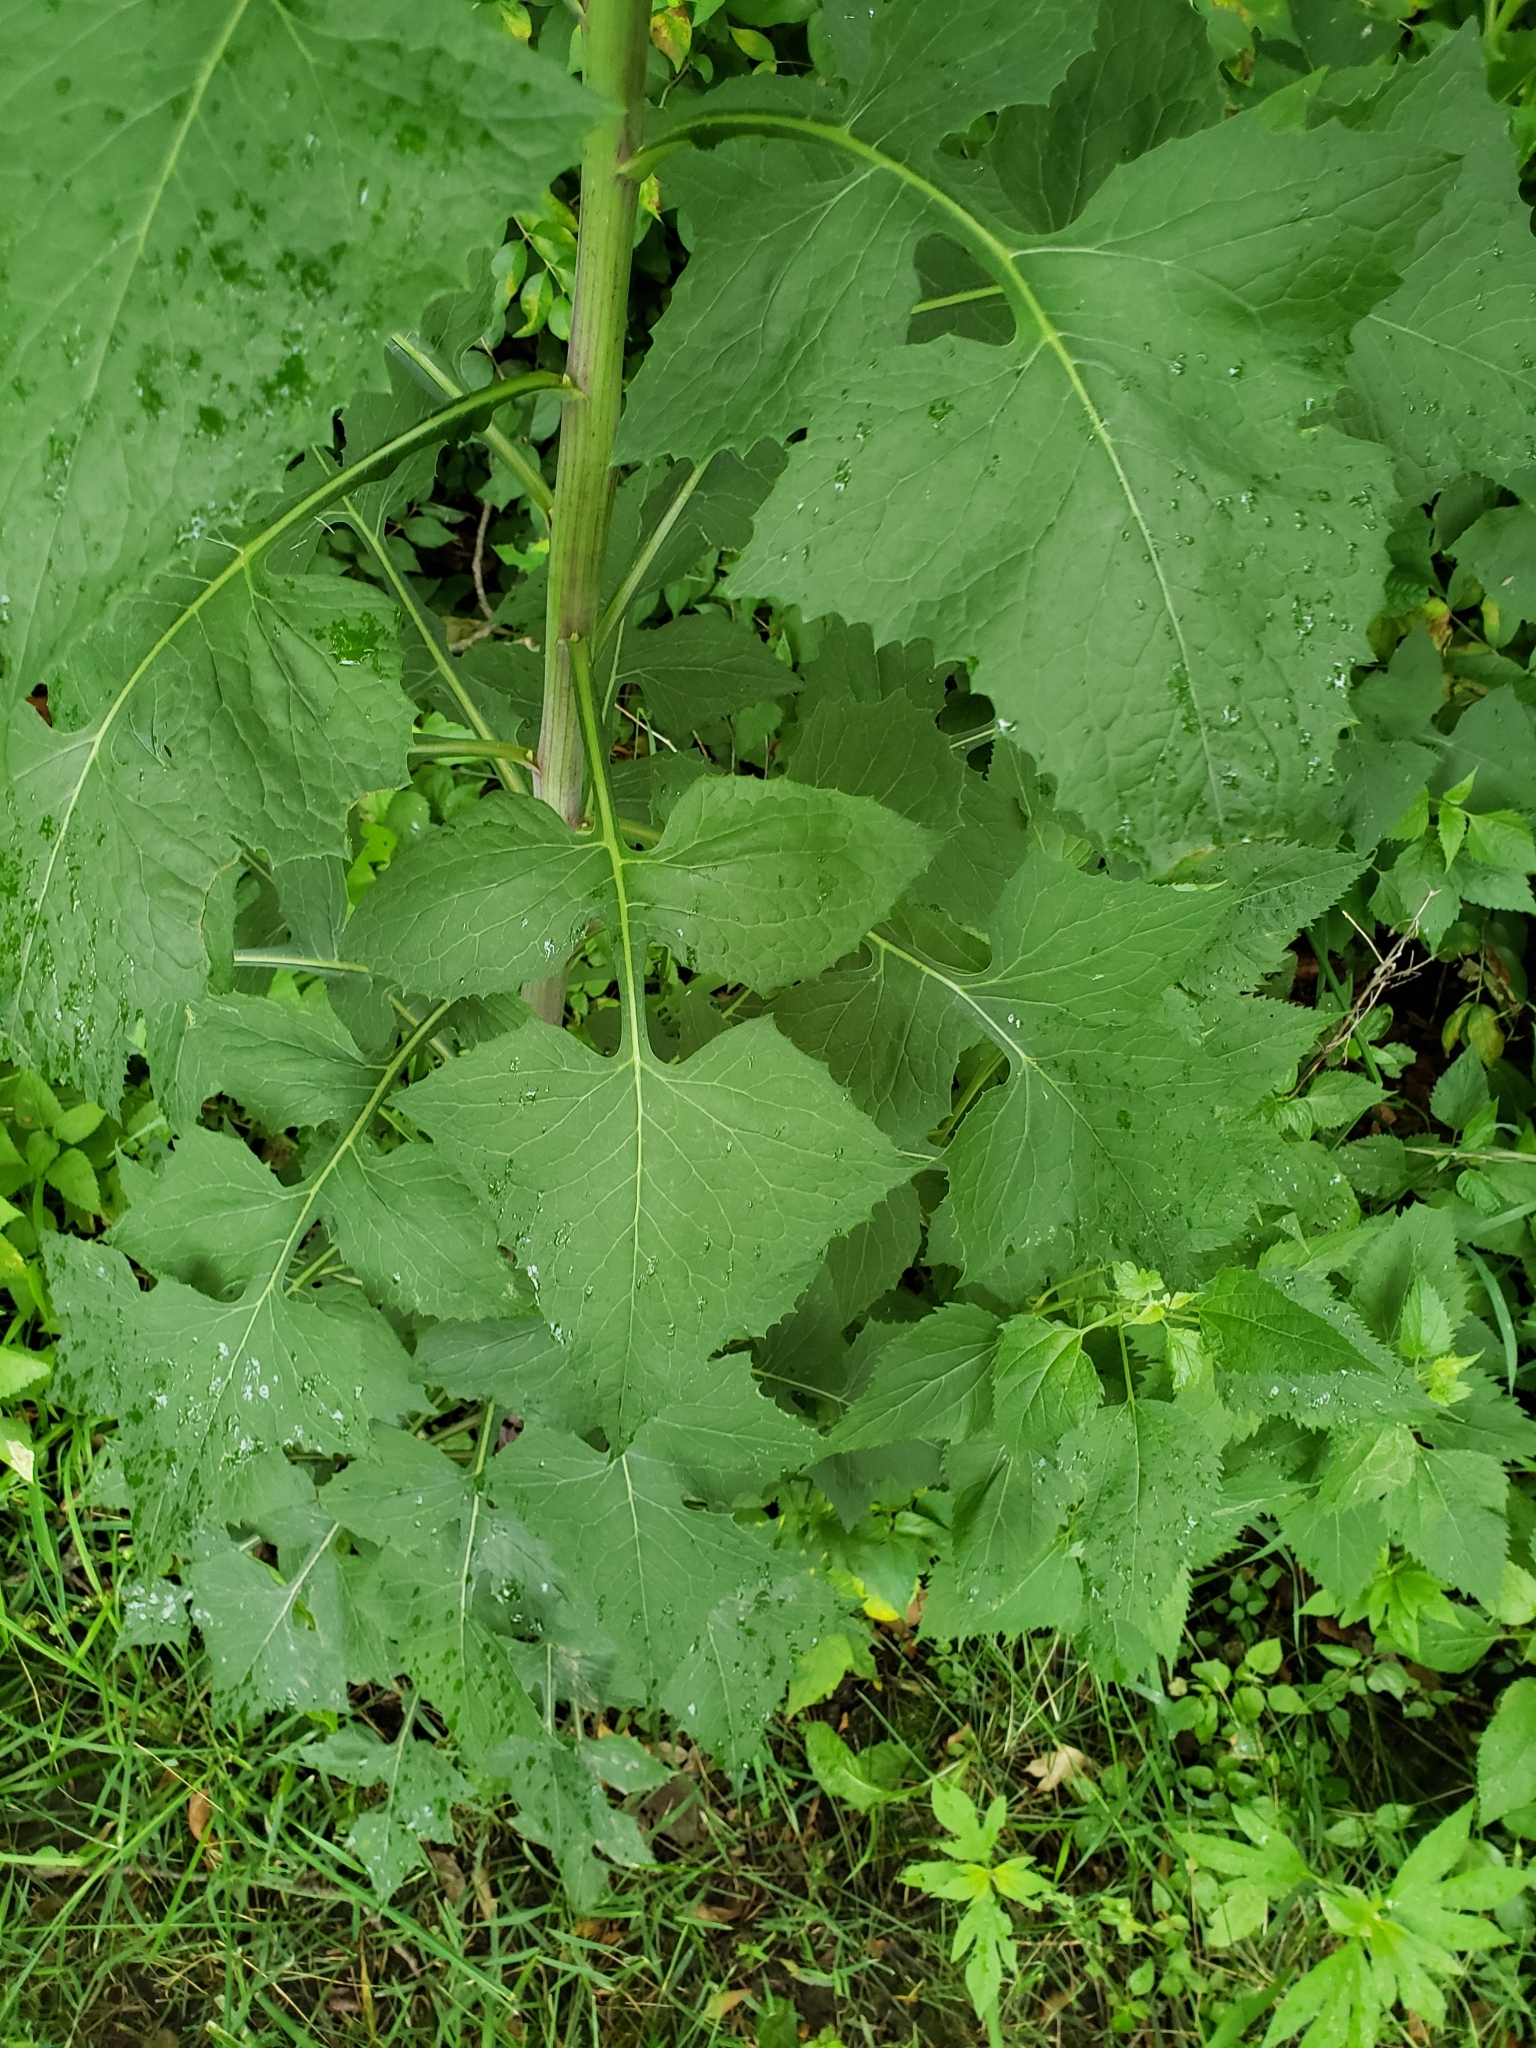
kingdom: Plantae
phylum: Tracheophyta
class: Magnoliopsida
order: Asterales
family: Asteraceae
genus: Lactuca
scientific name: Lactuca floridana
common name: Woodland lettuce
